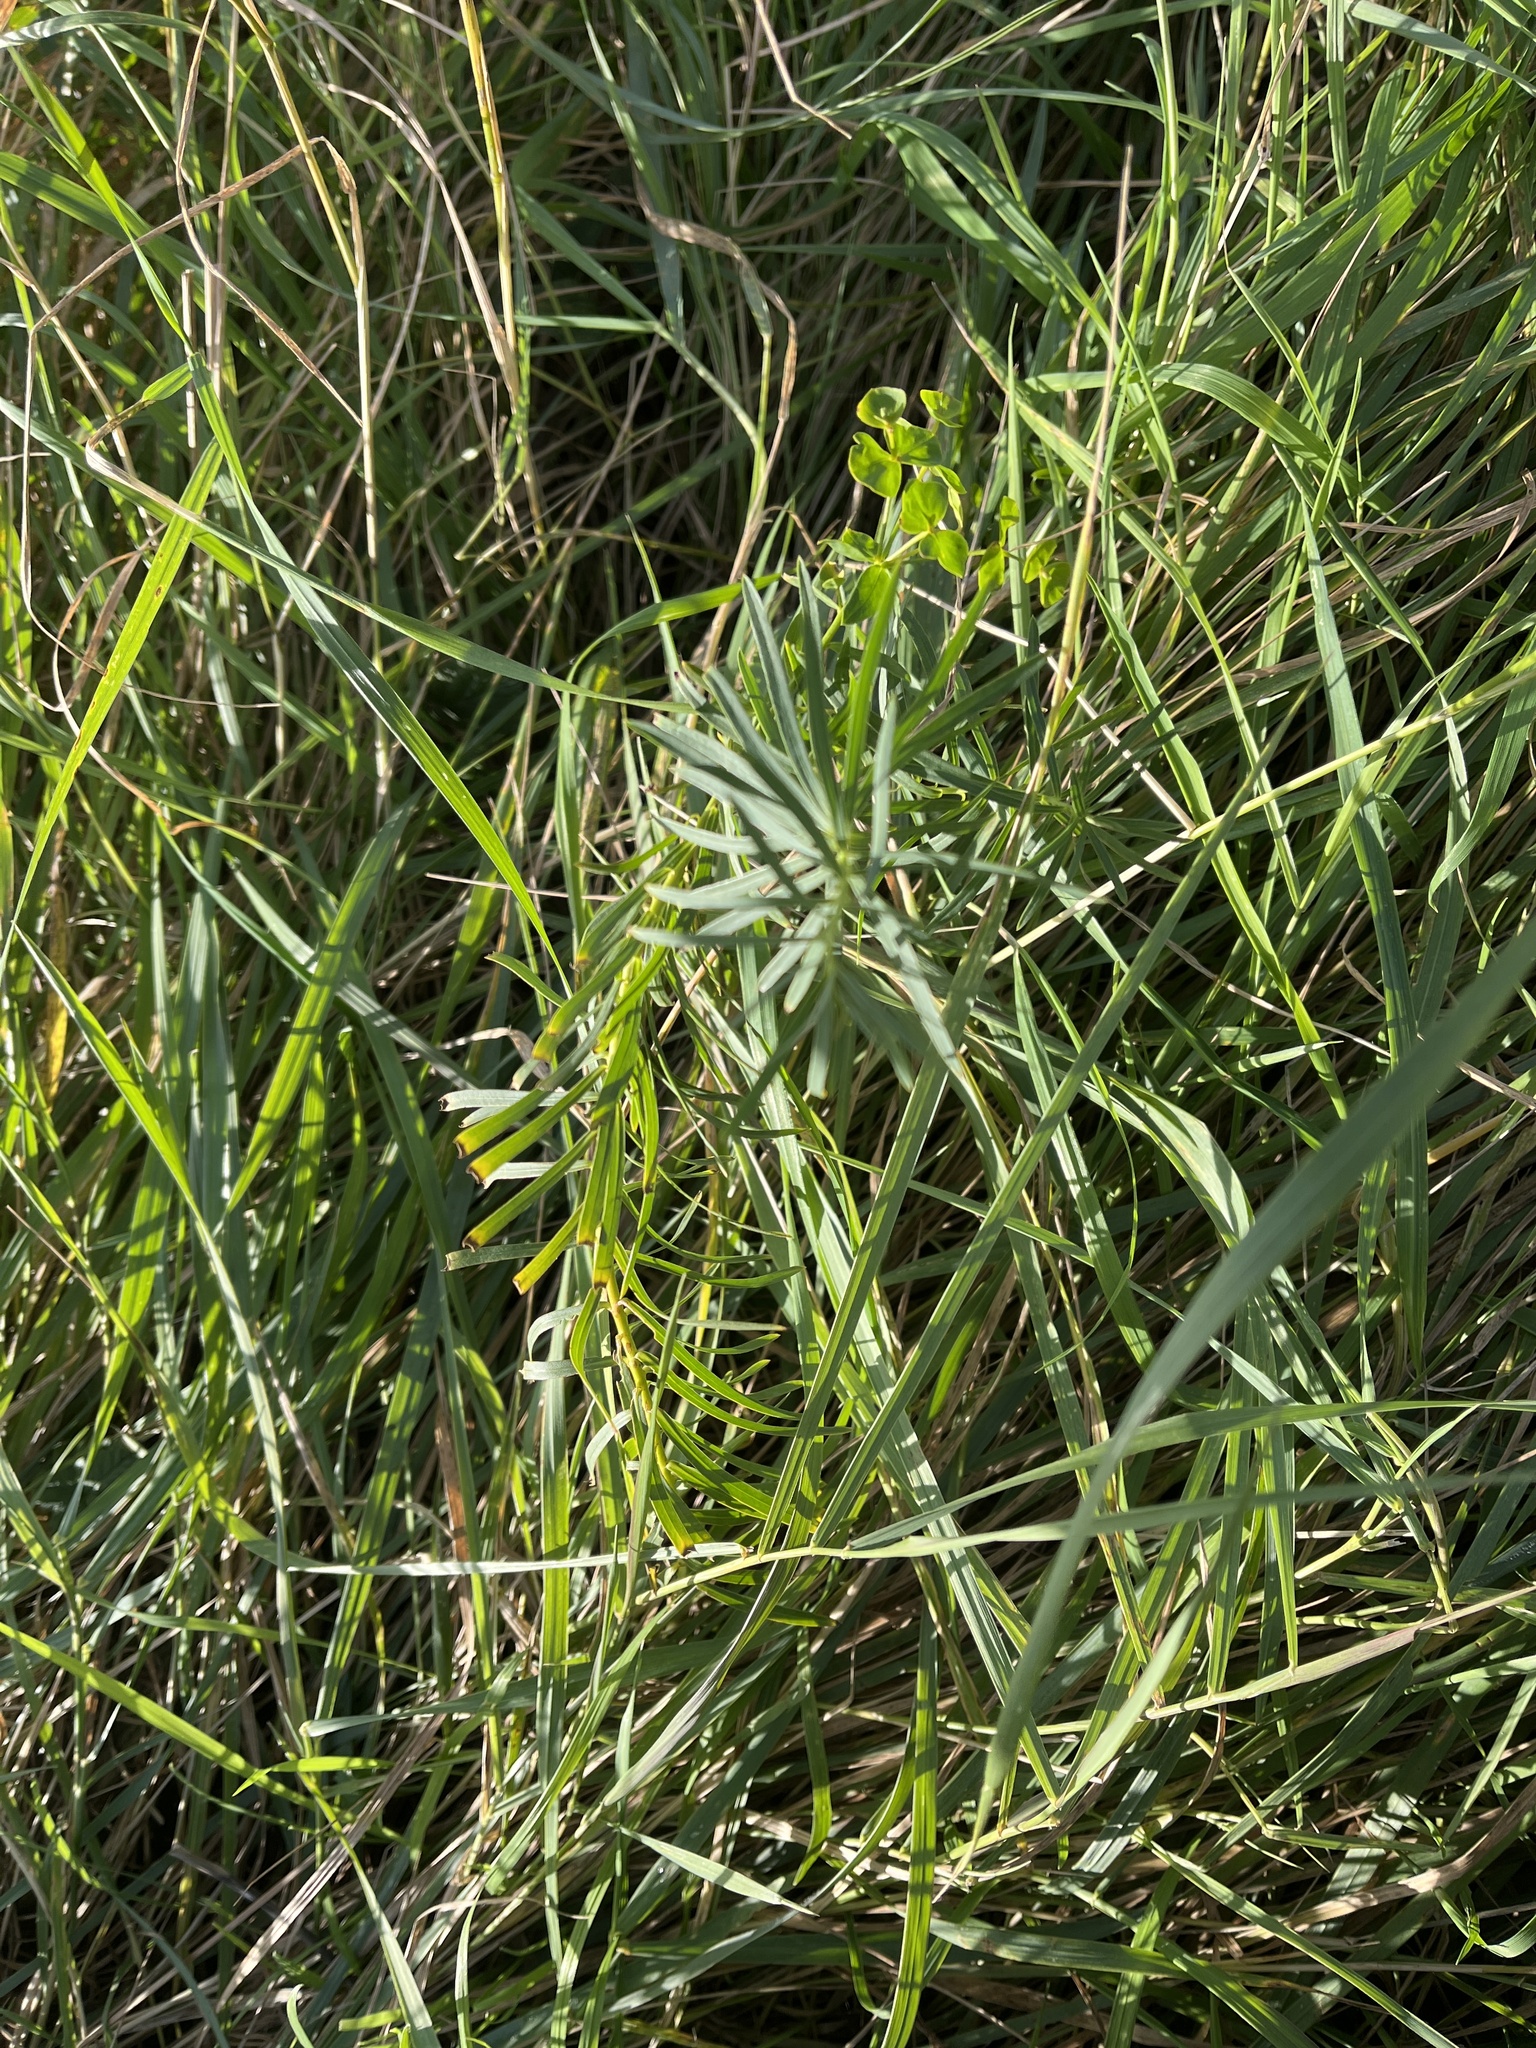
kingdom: Plantae
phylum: Tracheophyta
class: Magnoliopsida
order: Malpighiales
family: Euphorbiaceae
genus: Euphorbia
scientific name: Euphorbia cyparissias
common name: Cypress spurge
